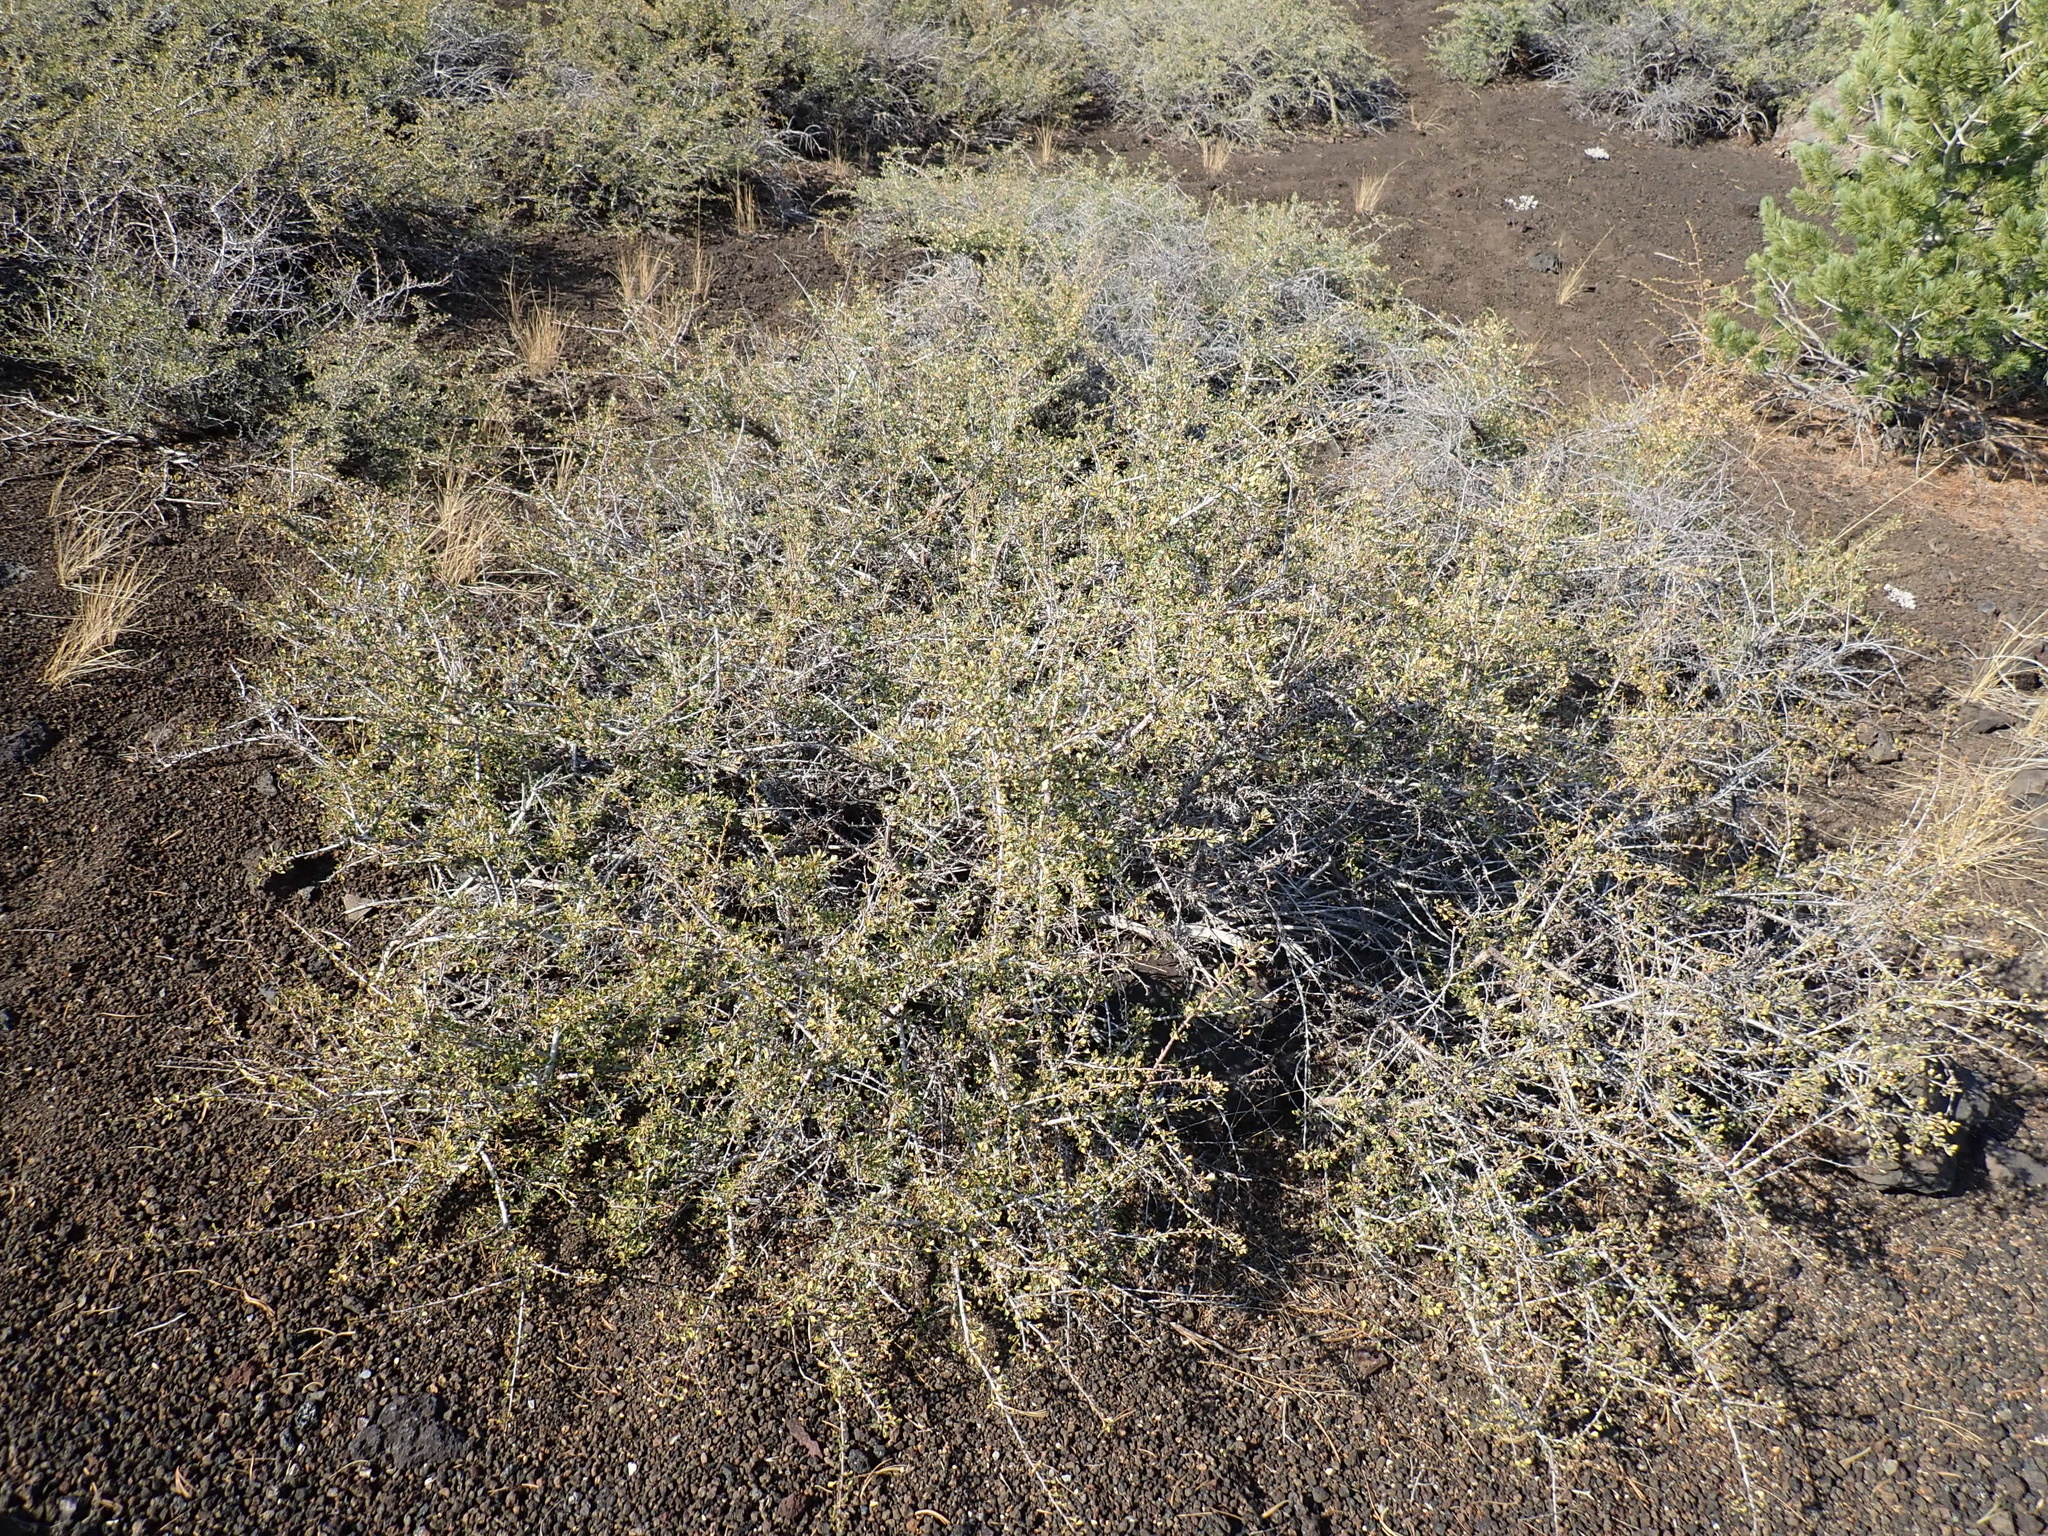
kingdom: Plantae
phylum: Tracheophyta
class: Magnoliopsida
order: Rosales
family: Rosaceae
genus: Purshia
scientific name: Purshia tridentata
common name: Antelope bitterbrush
